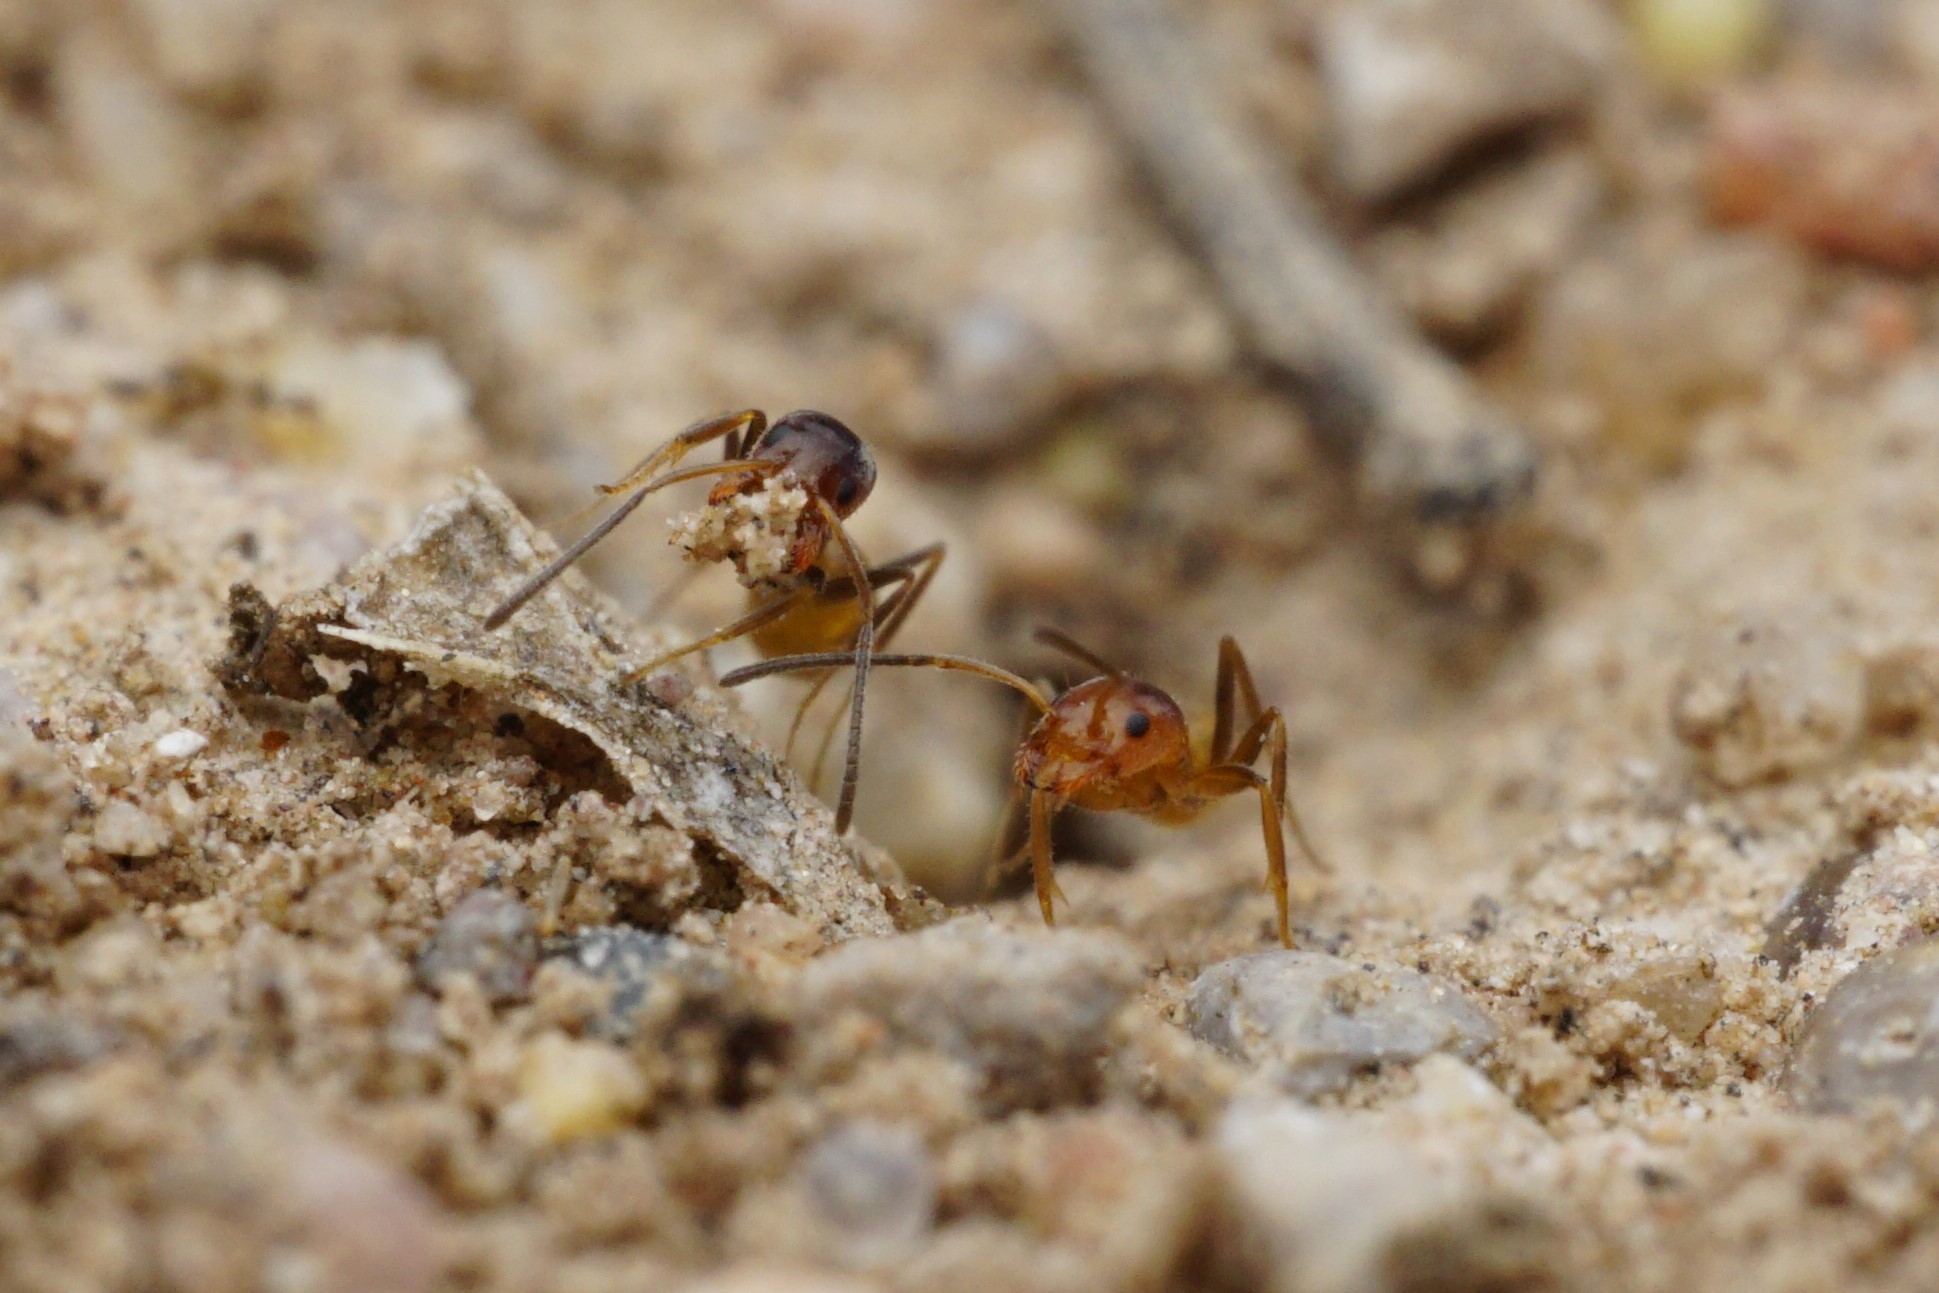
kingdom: Animalia
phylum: Arthropoda
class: Insecta
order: Hymenoptera
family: Formicidae
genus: Forelius
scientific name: Forelius mccooki
